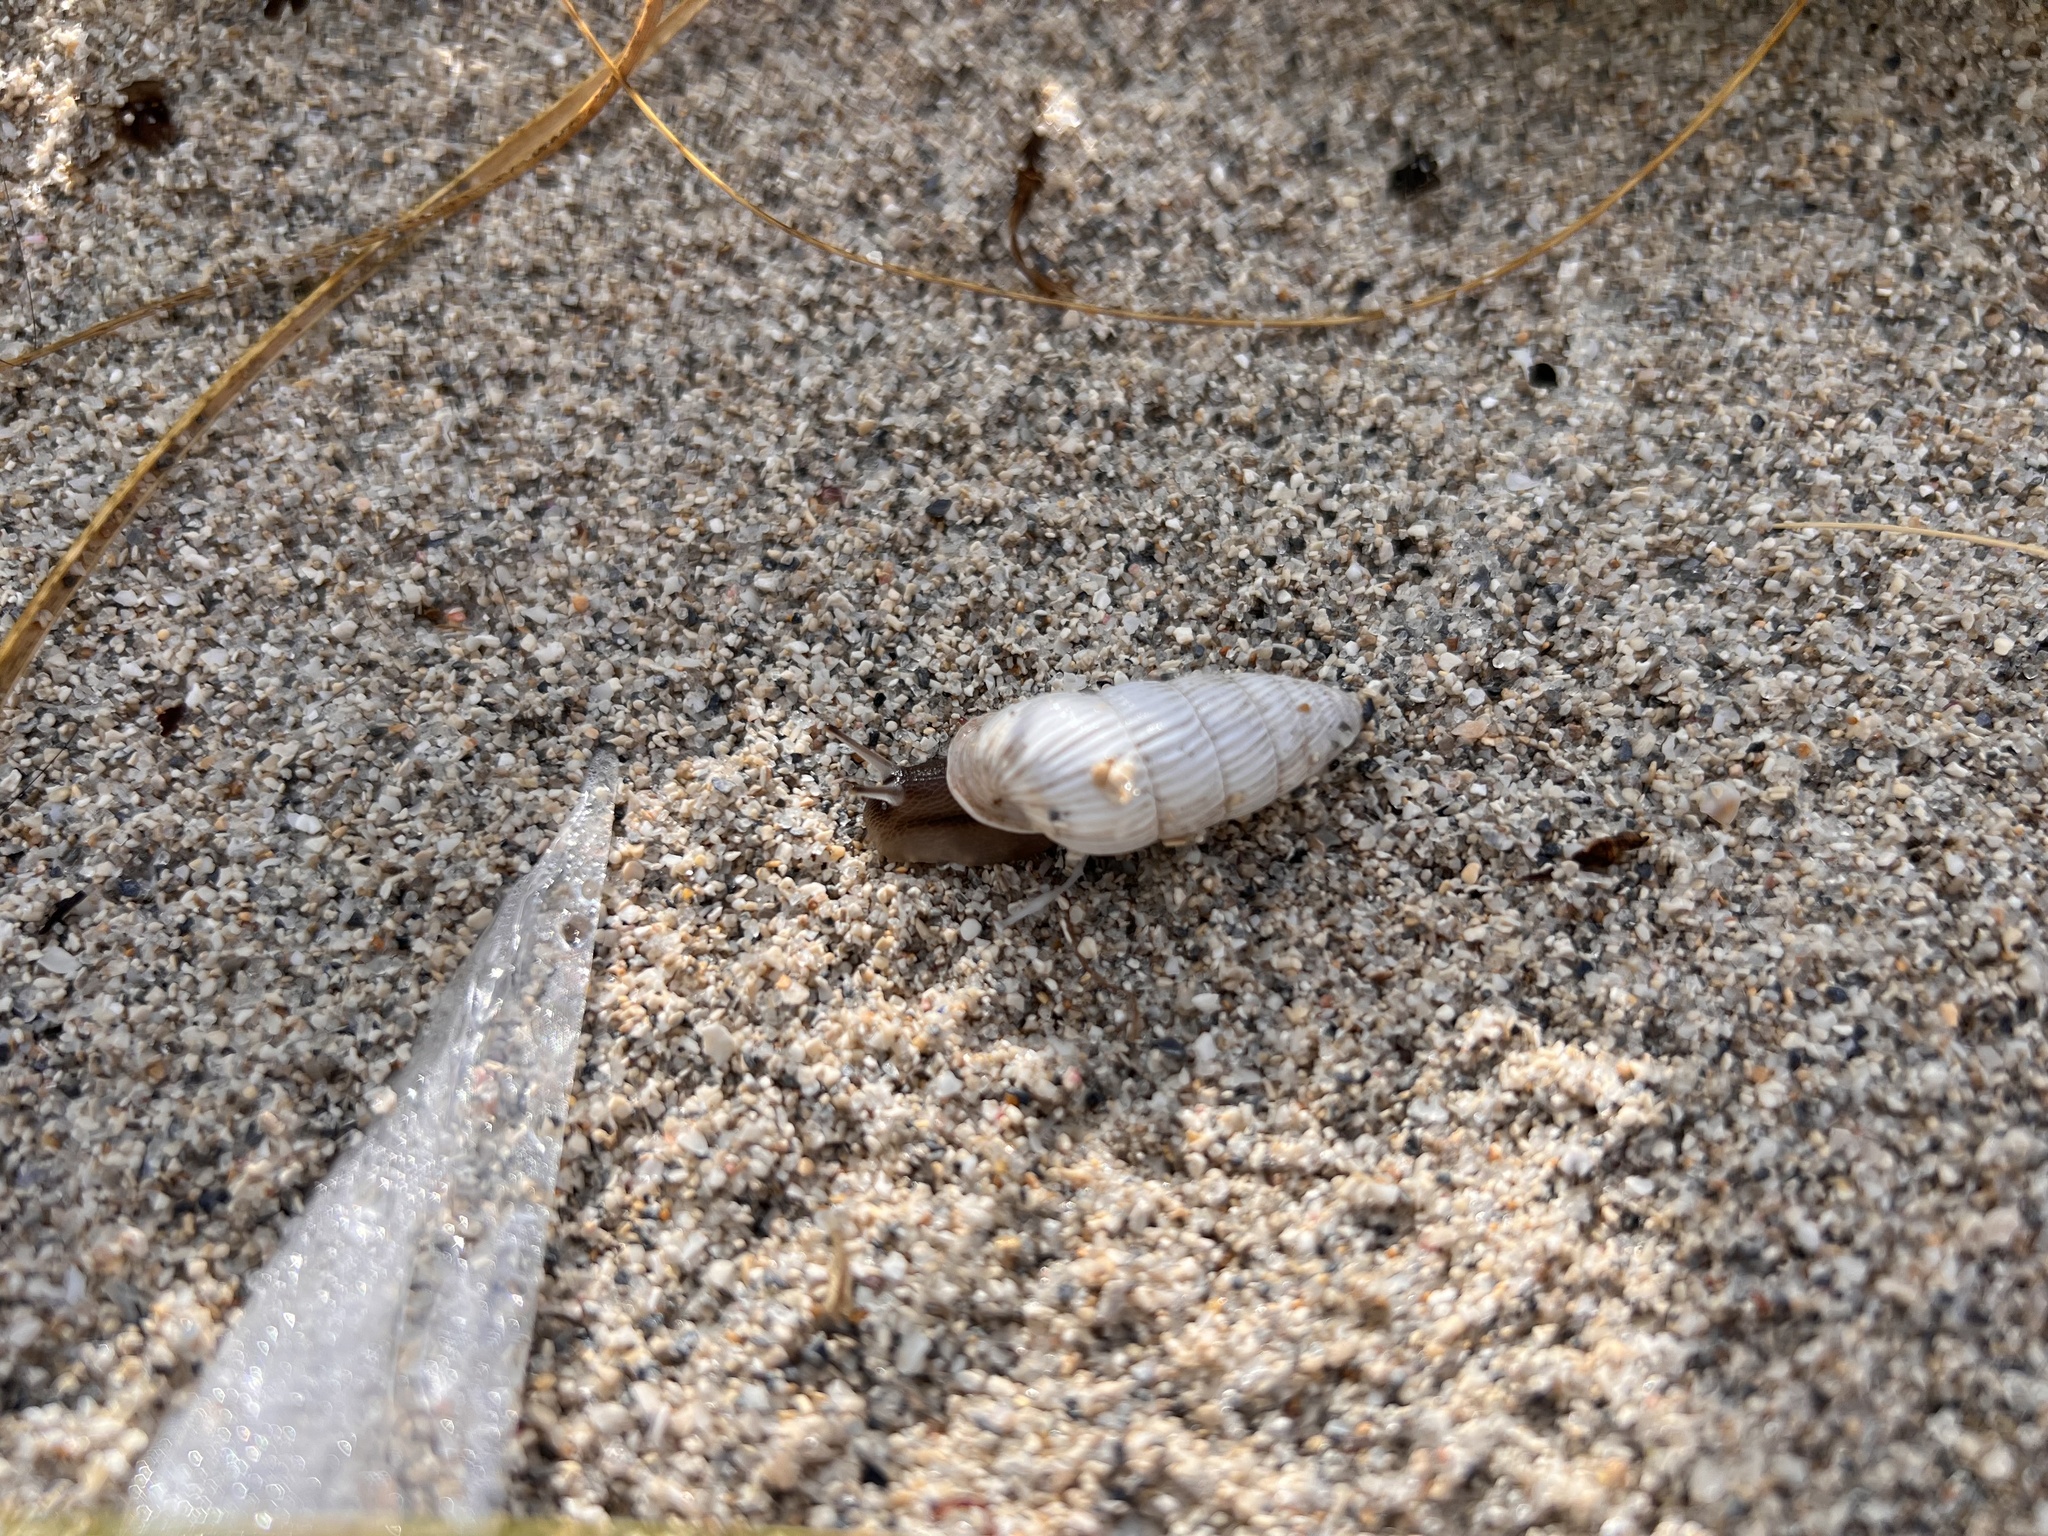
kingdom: Animalia
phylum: Mollusca
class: Gastropoda
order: Stylommatophora
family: Cerionidae
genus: Cerion
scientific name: Cerion incanum
